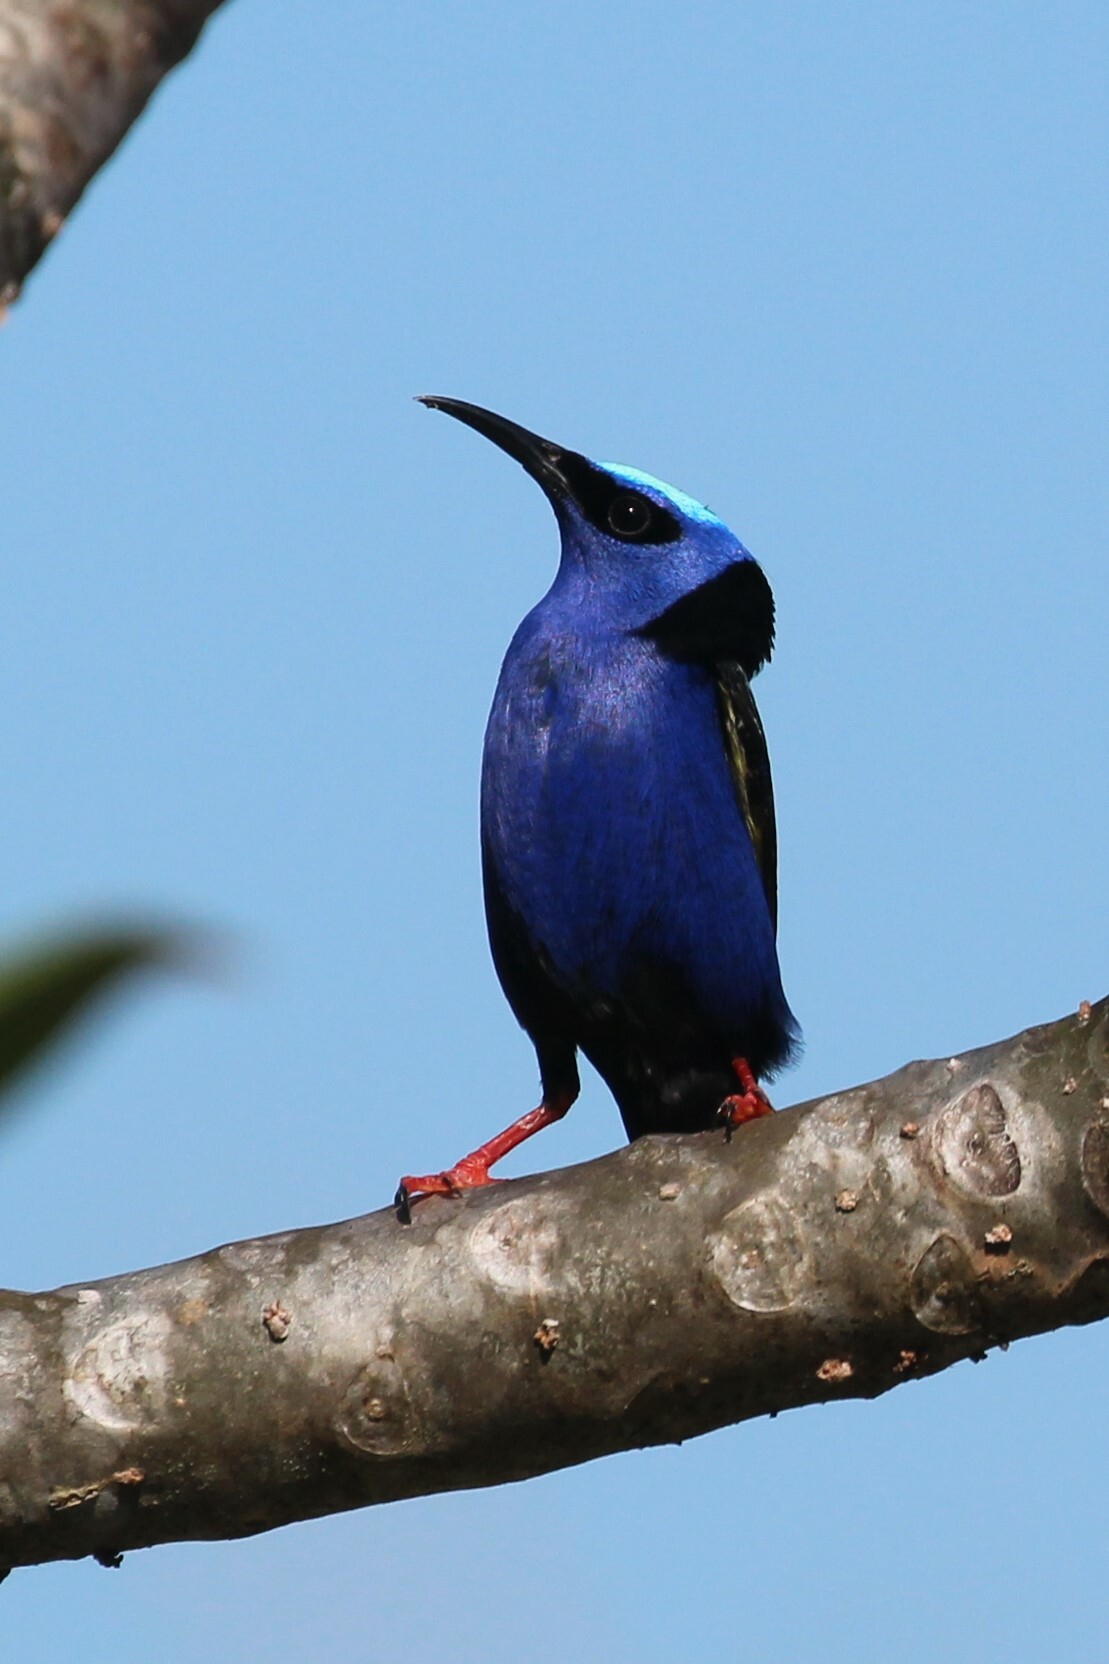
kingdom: Animalia
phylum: Chordata
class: Aves
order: Passeriformes
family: Thraupidae
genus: Cyanerpes
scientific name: Cyanerpes cyaneus
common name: Red-legged honeycreeper
